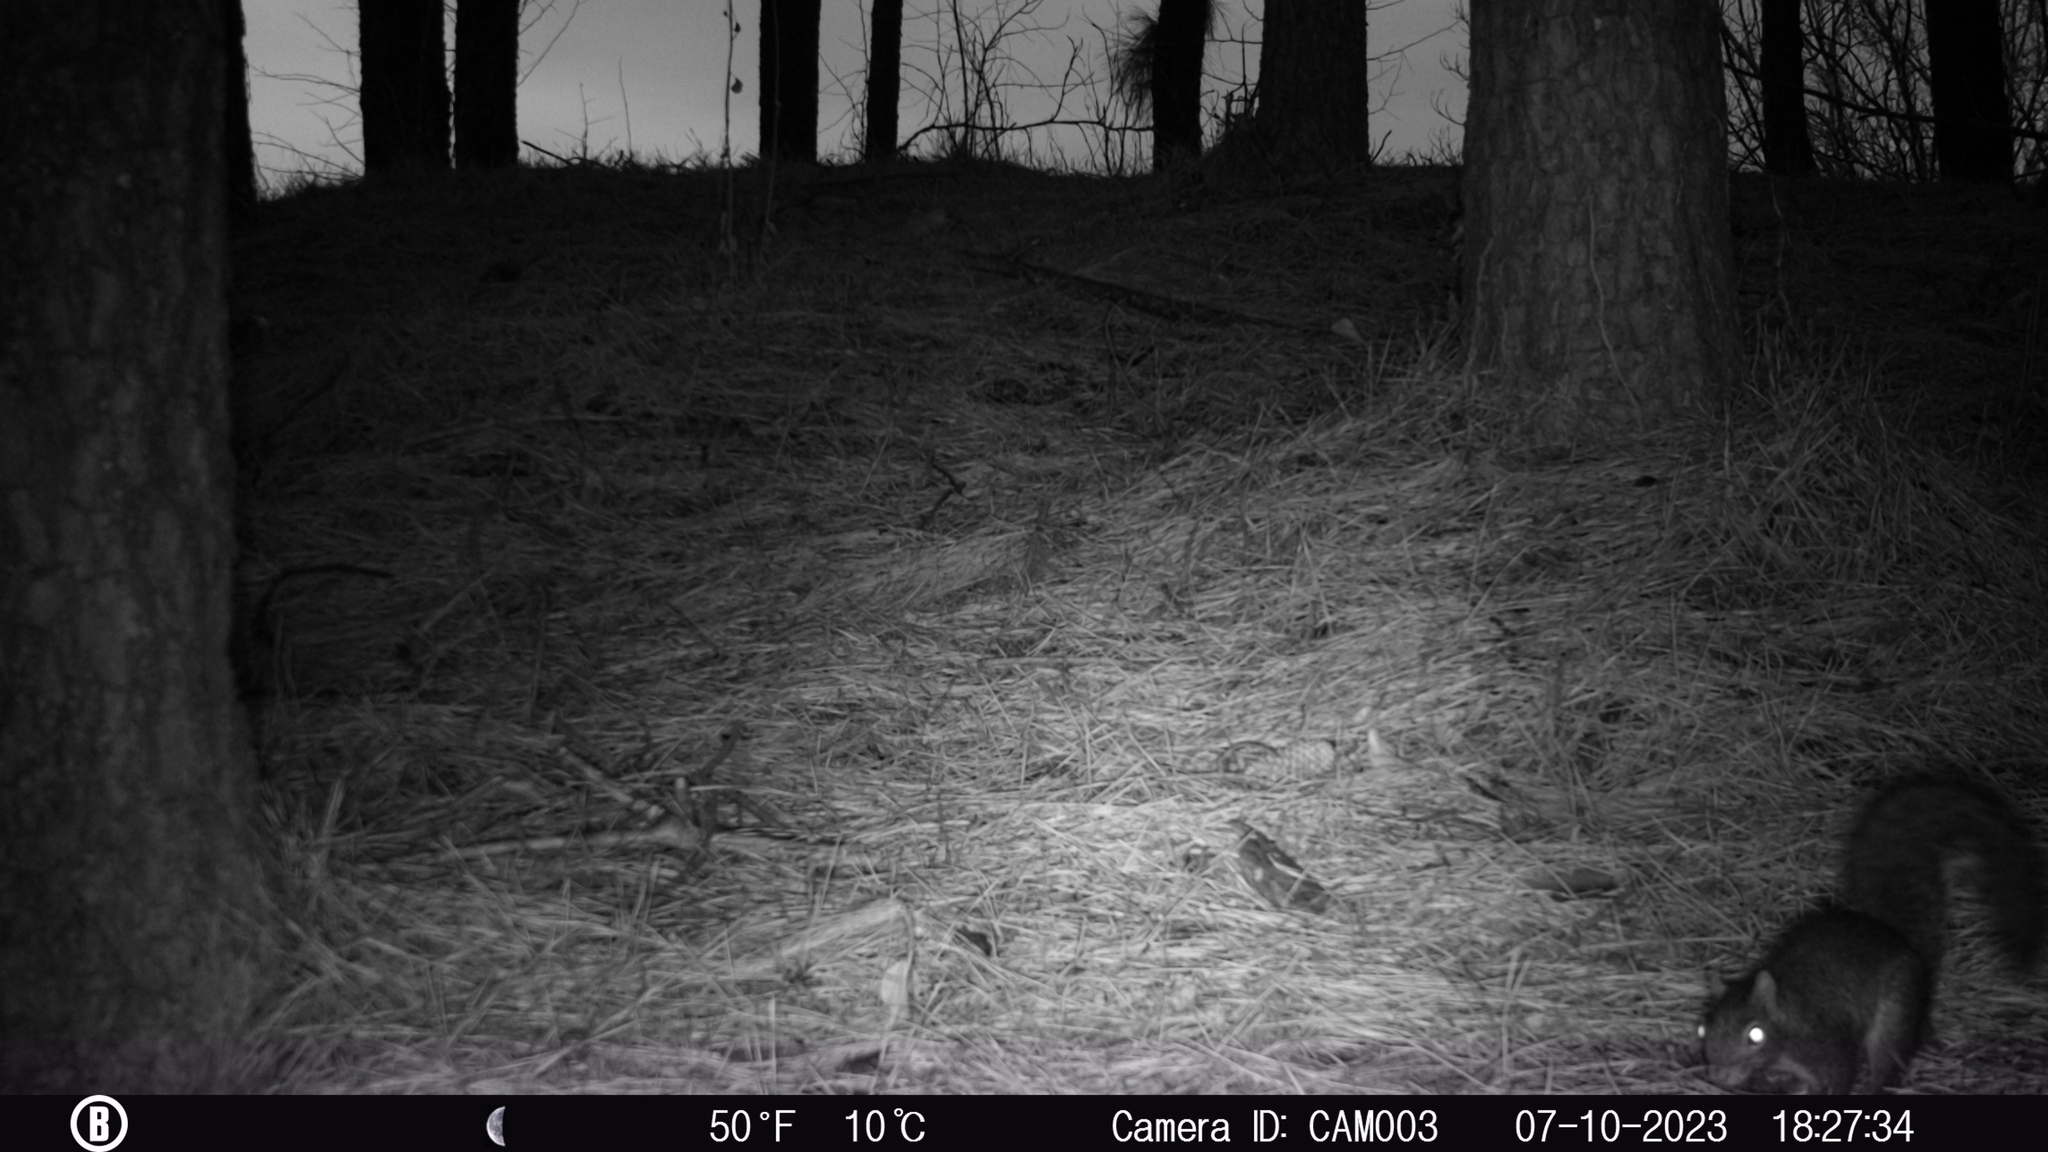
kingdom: Animalia
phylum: Chordata
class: Mammalia
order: Rodentia
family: Sciuridae
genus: Sciurus
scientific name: Sciurus carolinensis
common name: Eastern gray squirrel
